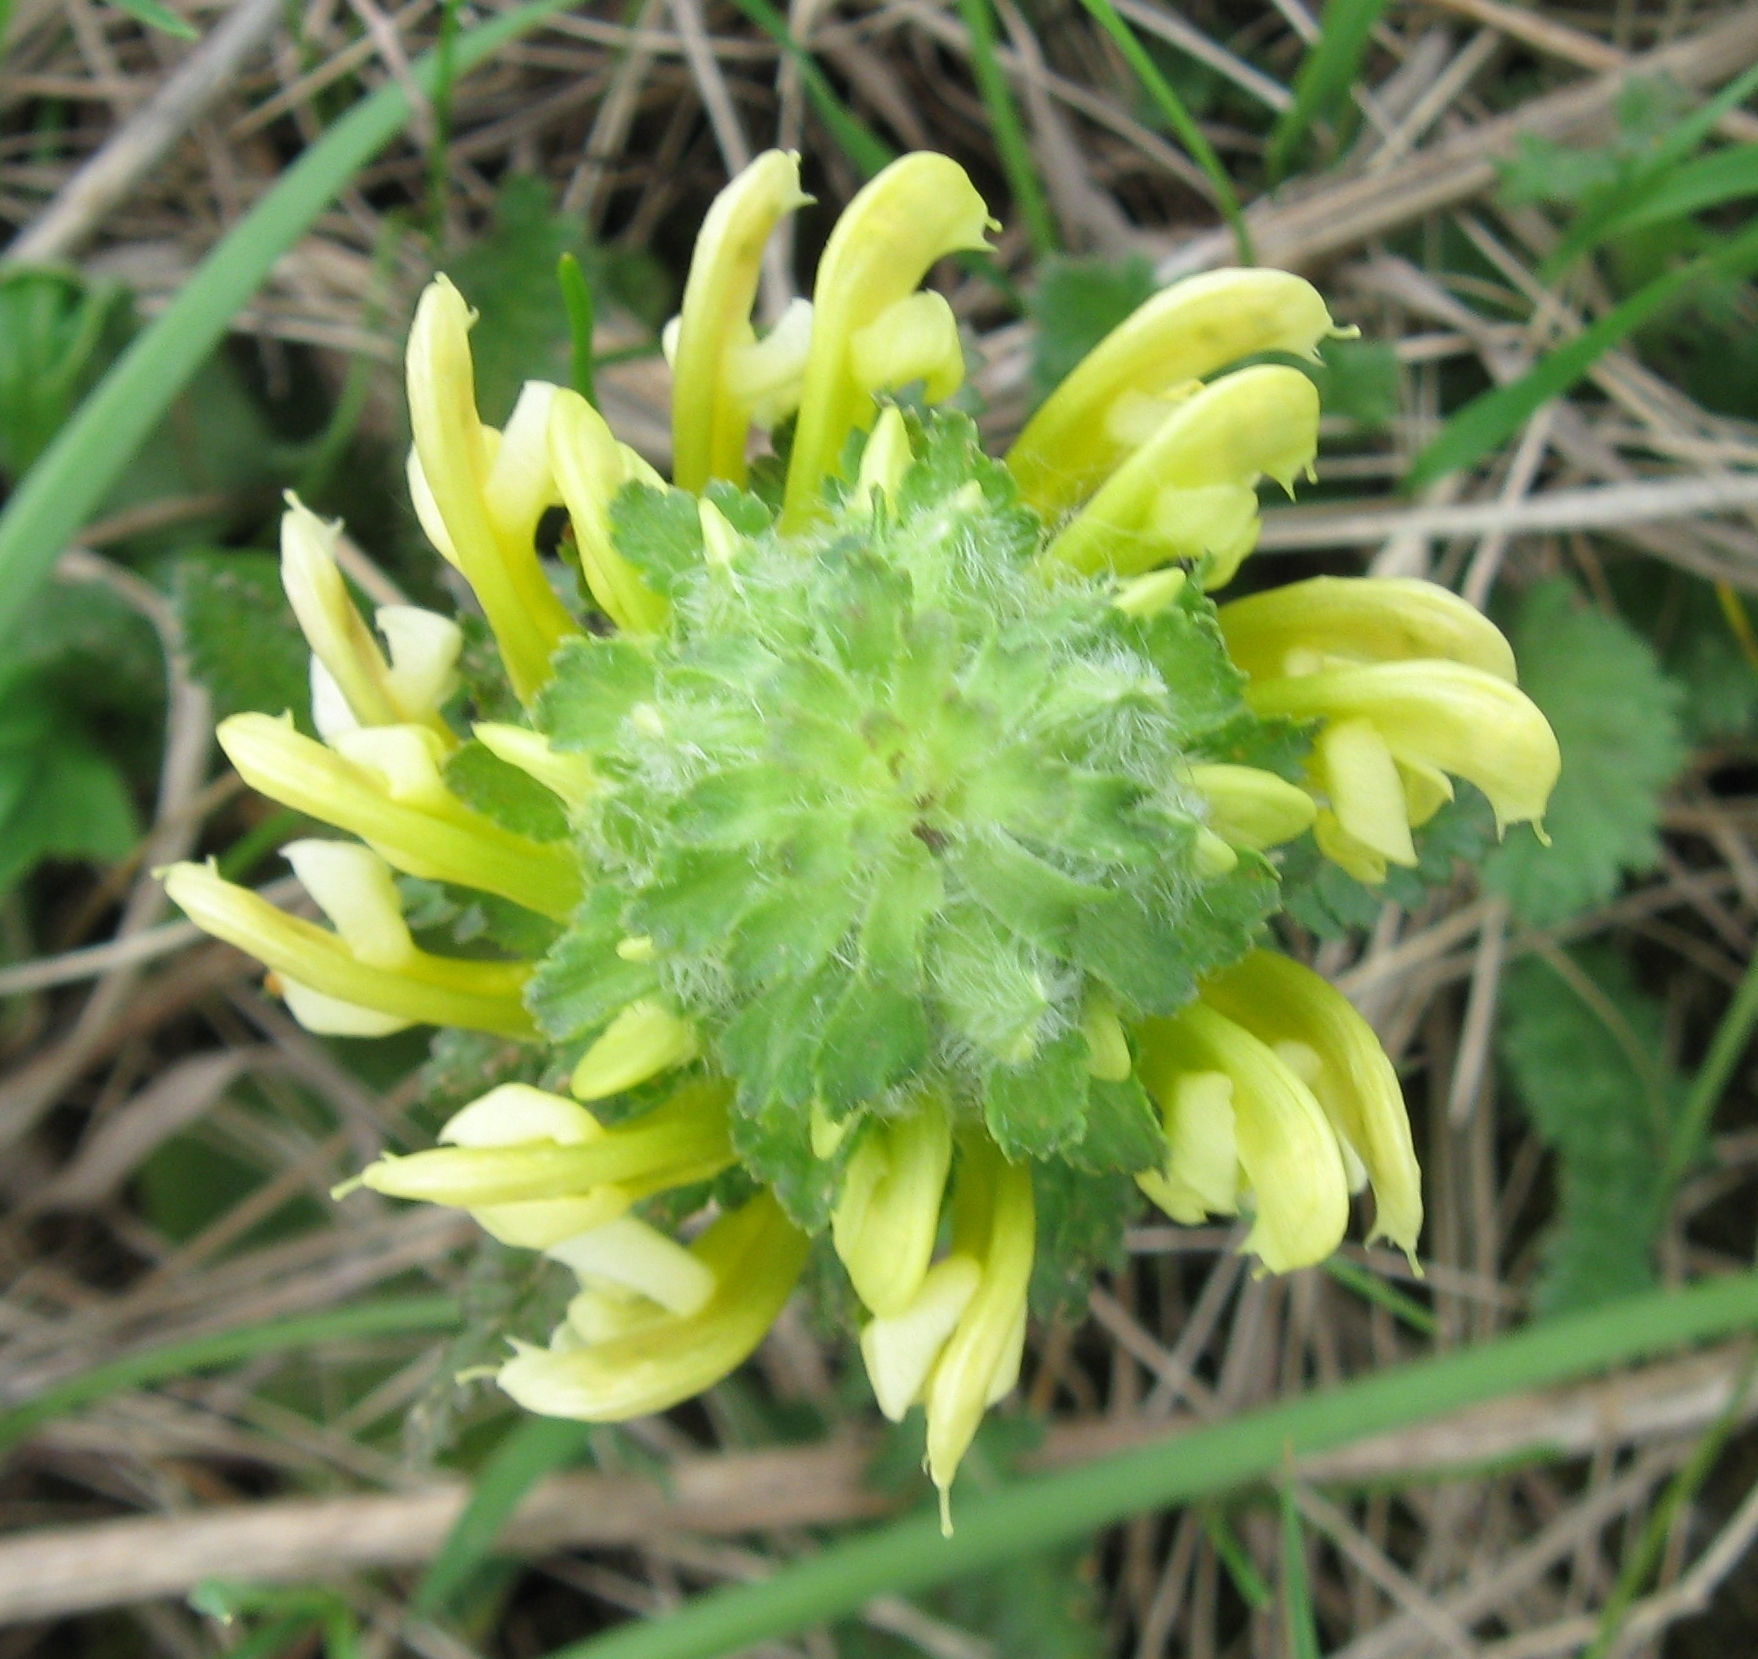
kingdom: Plantae
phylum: Tracheophyta
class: Magnoliopsida
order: Lamiales
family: Orobanchaceae
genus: Pedicularis
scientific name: Pedicularis canadensis
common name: Early lousewort
